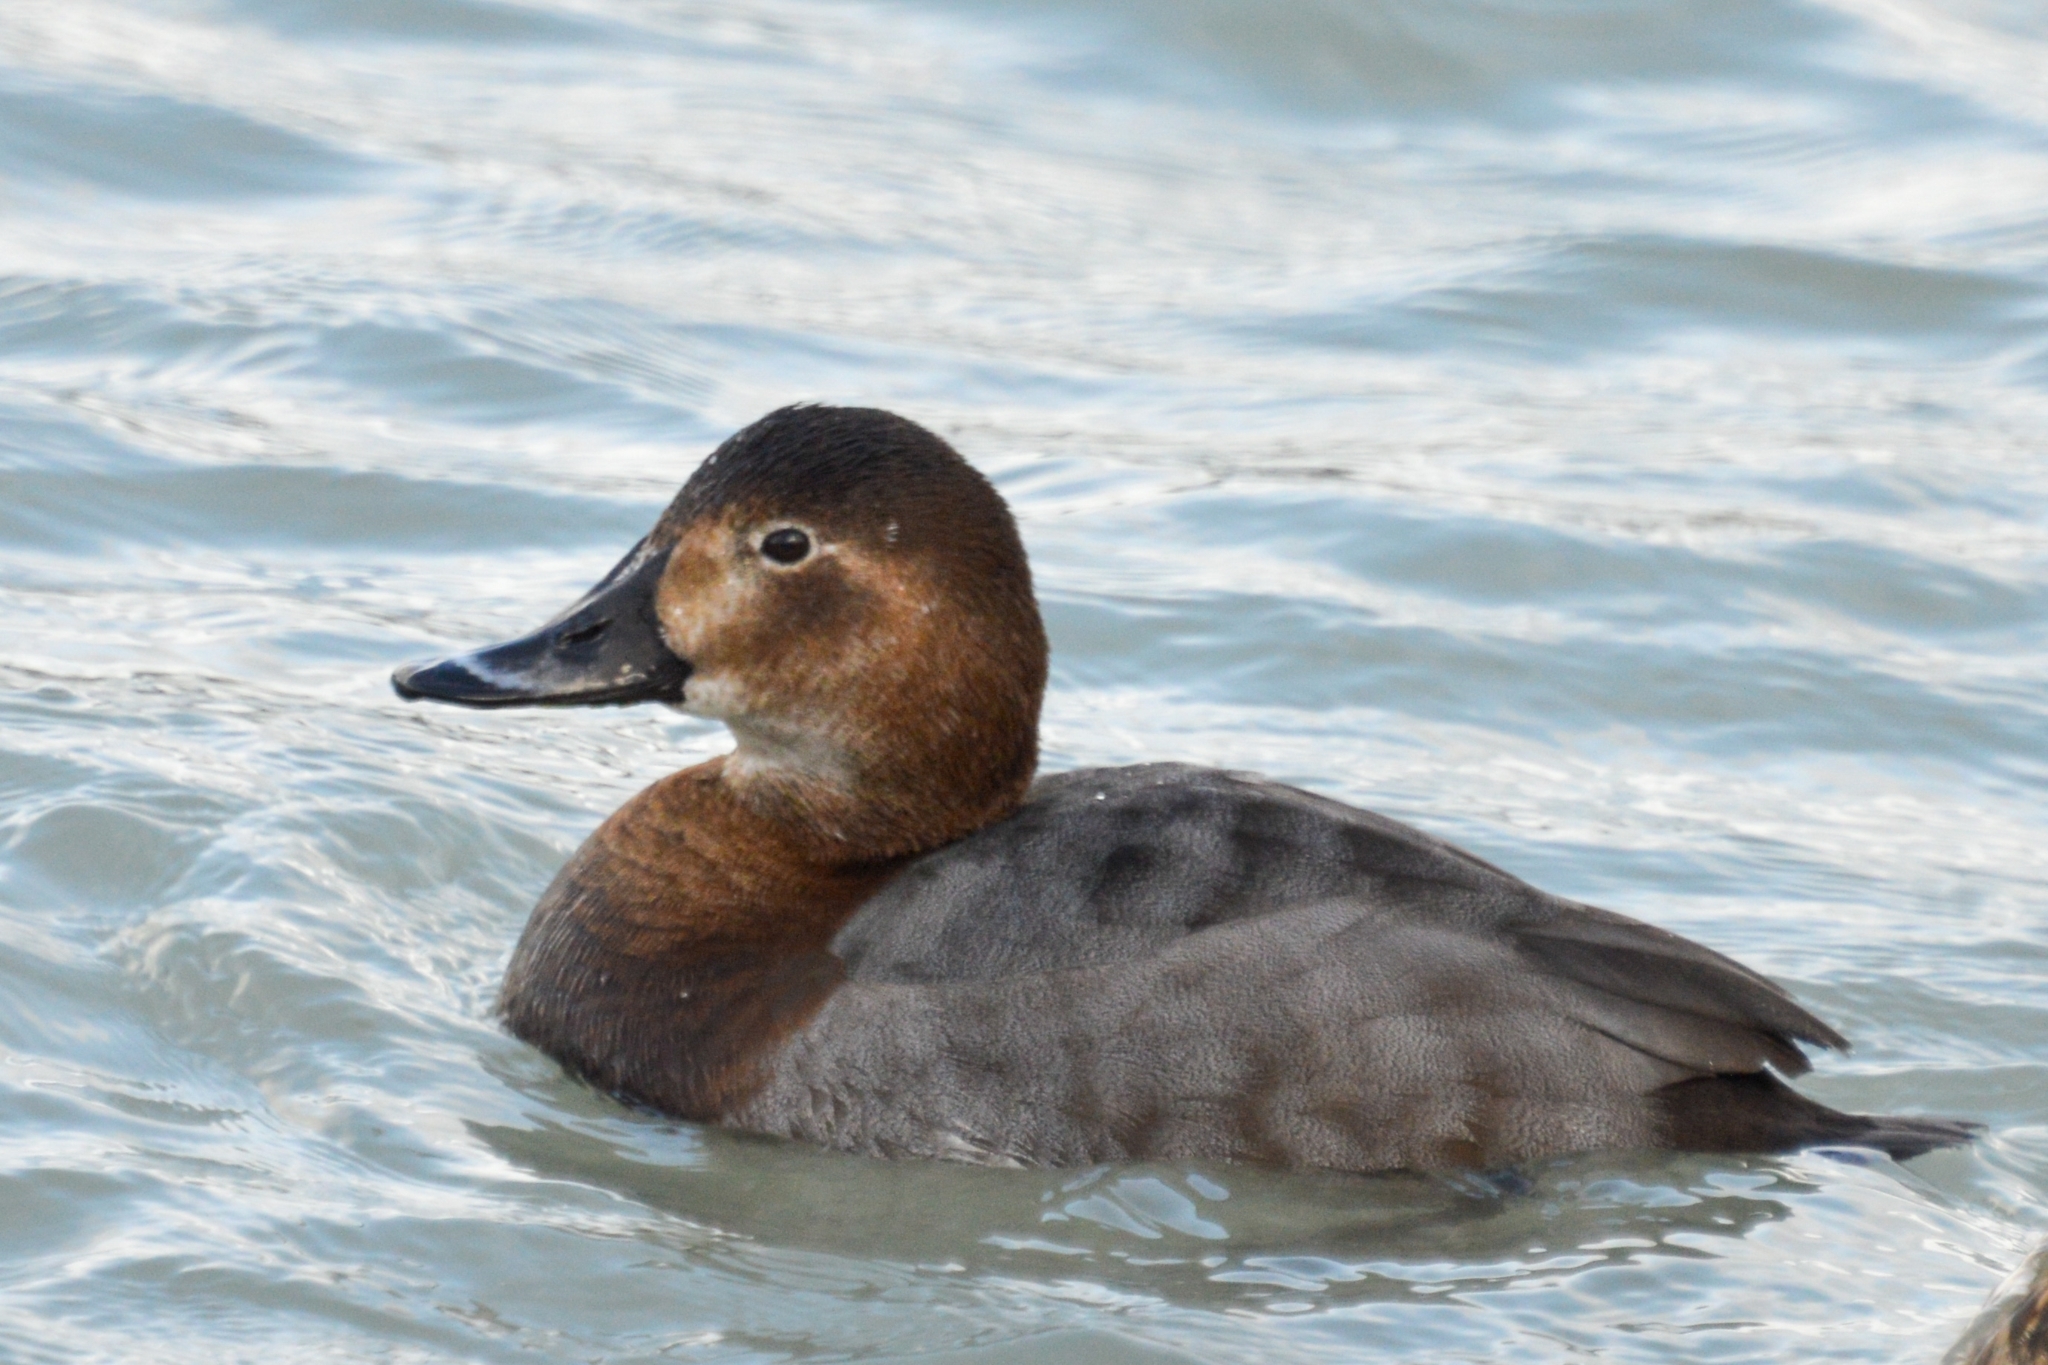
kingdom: Animalia
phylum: Chordata
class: Aves
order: Anseriformes
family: Anatidae
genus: Aythya
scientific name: Aythya ferina
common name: Common pochard
